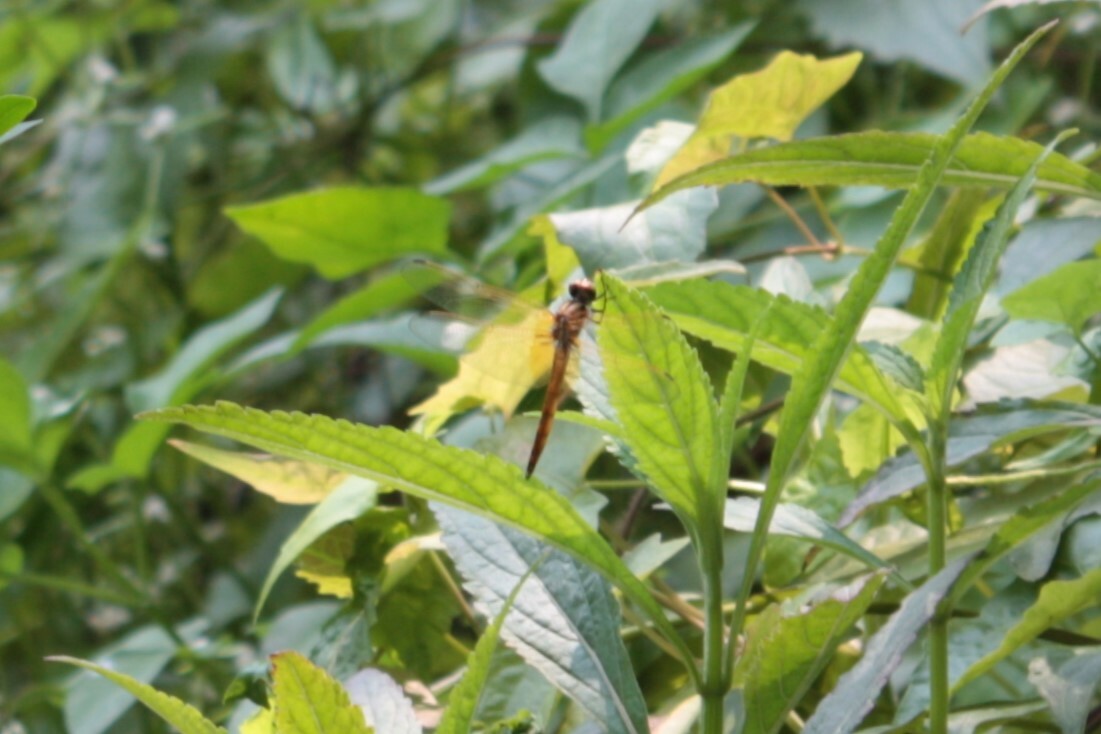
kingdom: Animalia
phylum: Arthropoda
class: Insecta
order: Odonata
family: Libellulidae
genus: Trithemis
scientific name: Trithemis aurora
